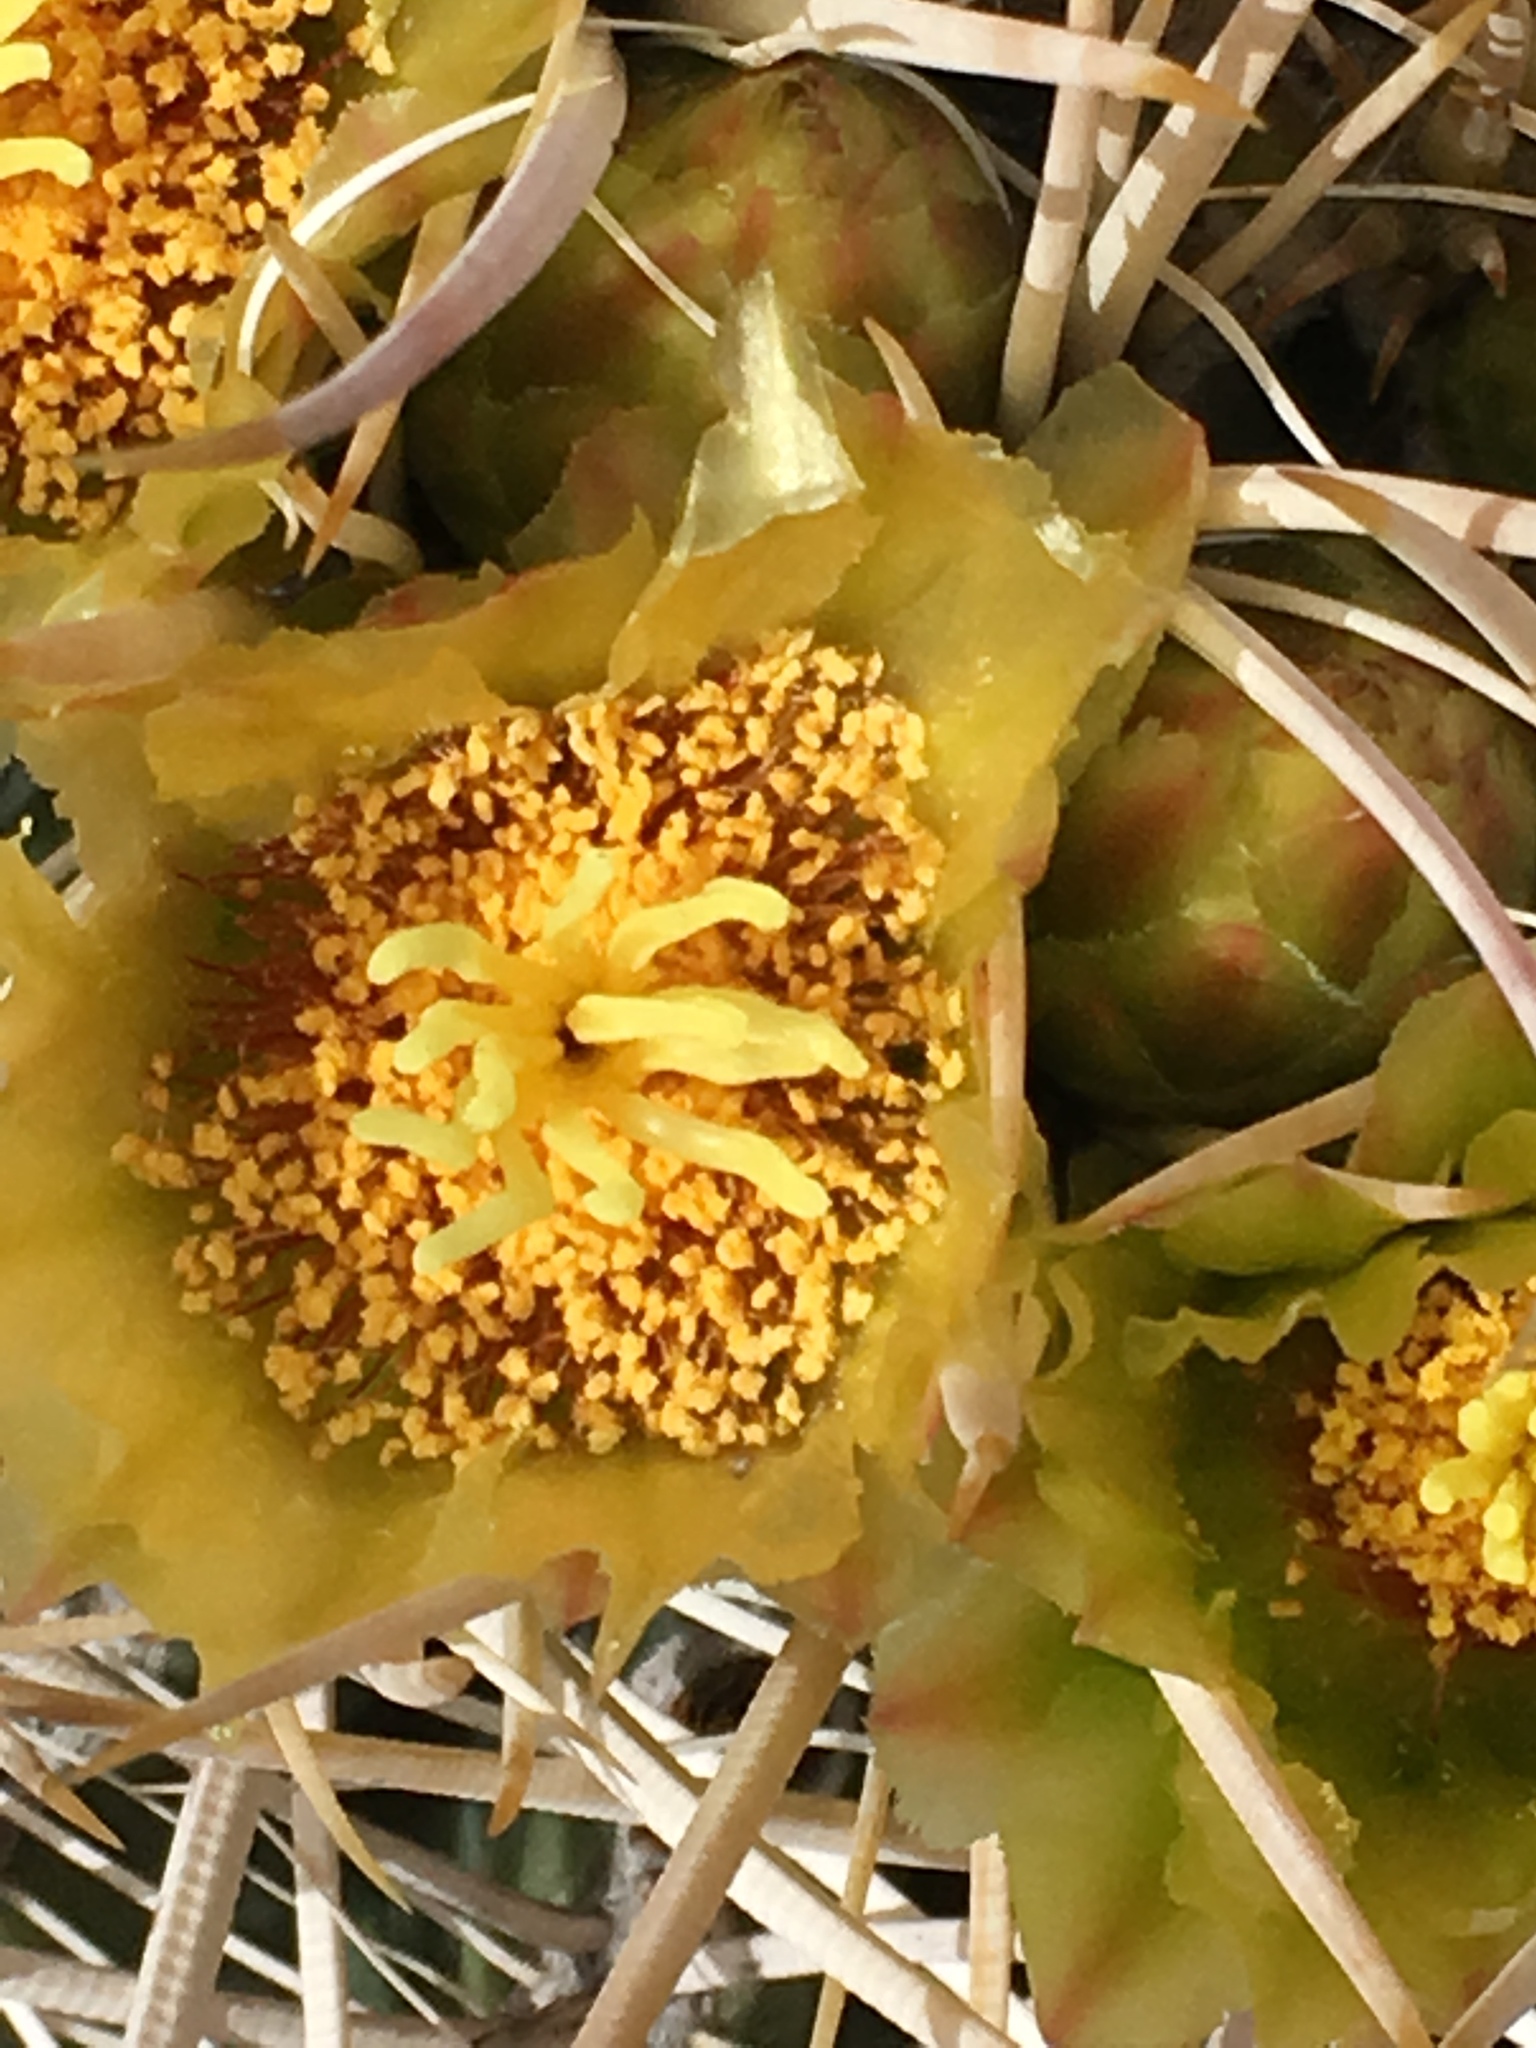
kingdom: Plantae
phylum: Tracheophyta
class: Magnoliopsida
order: Caryophyllales
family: Cactaceae
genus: Ferocactus
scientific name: Ferocactus cylindraceus
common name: California barrel cactus
